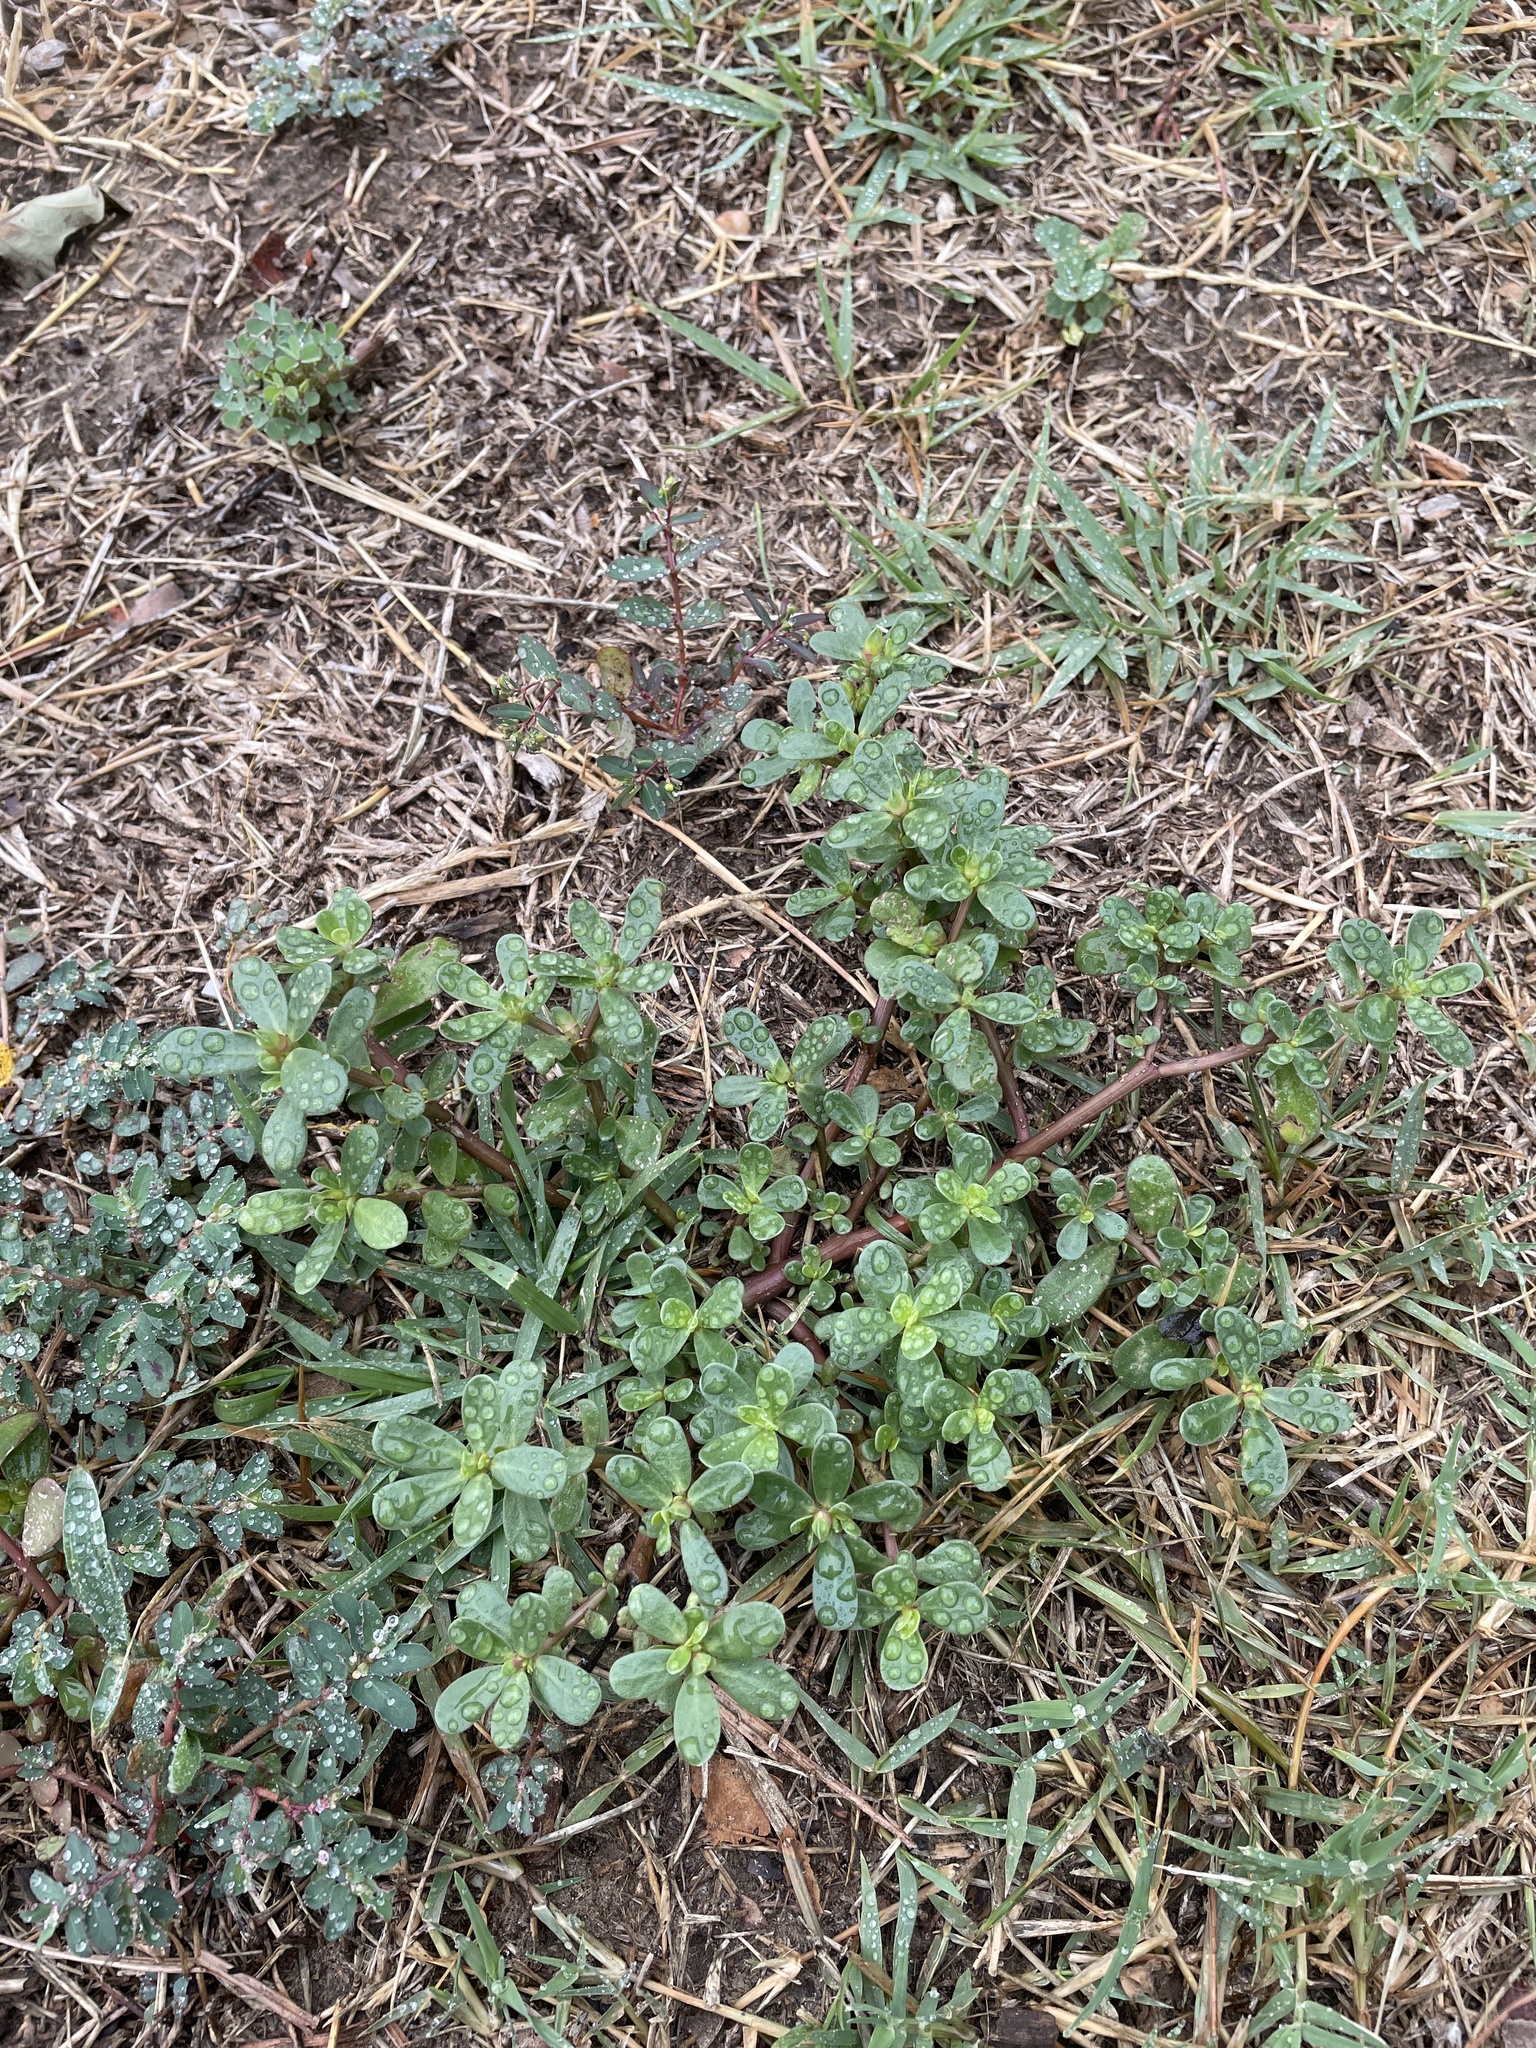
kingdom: Plantae
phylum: Tracheophyta
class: Magnoliopsida
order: Caryophyllales
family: Portulacaceae
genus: Portulaca
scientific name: Portulaca oleracea
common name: Common purslane
